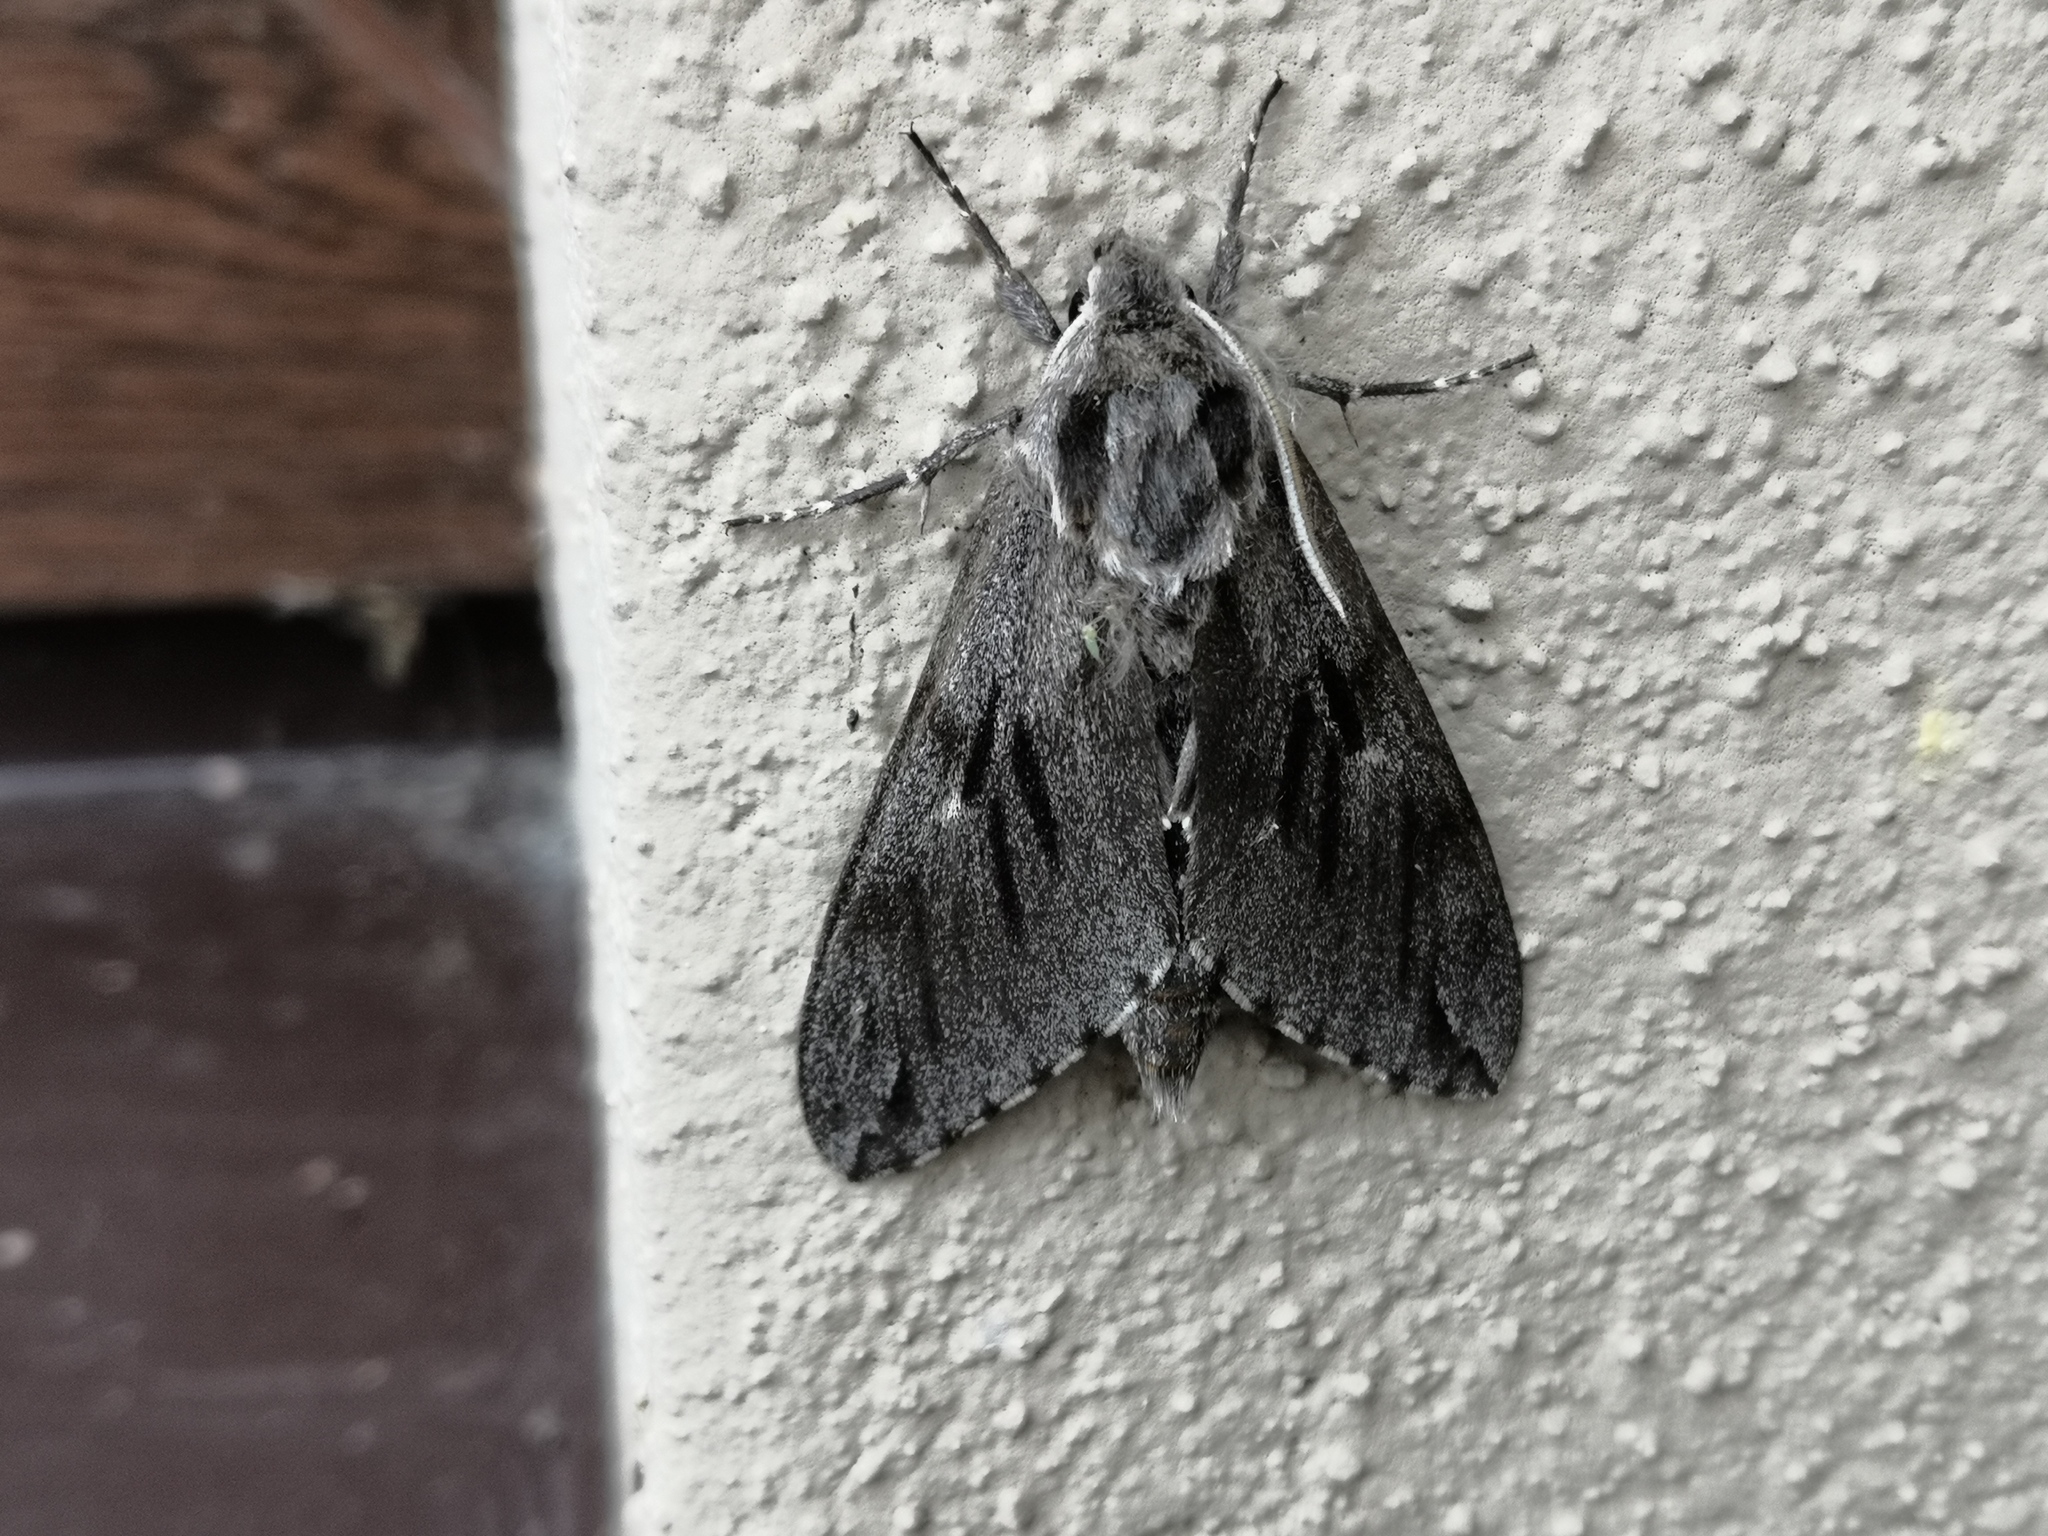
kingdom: Animalia
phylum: Arthropoda
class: Insecta
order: Lepidoptera
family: Sphingidae
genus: Sphinx
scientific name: Sphinx pinastri
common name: Pine hawk-moth
